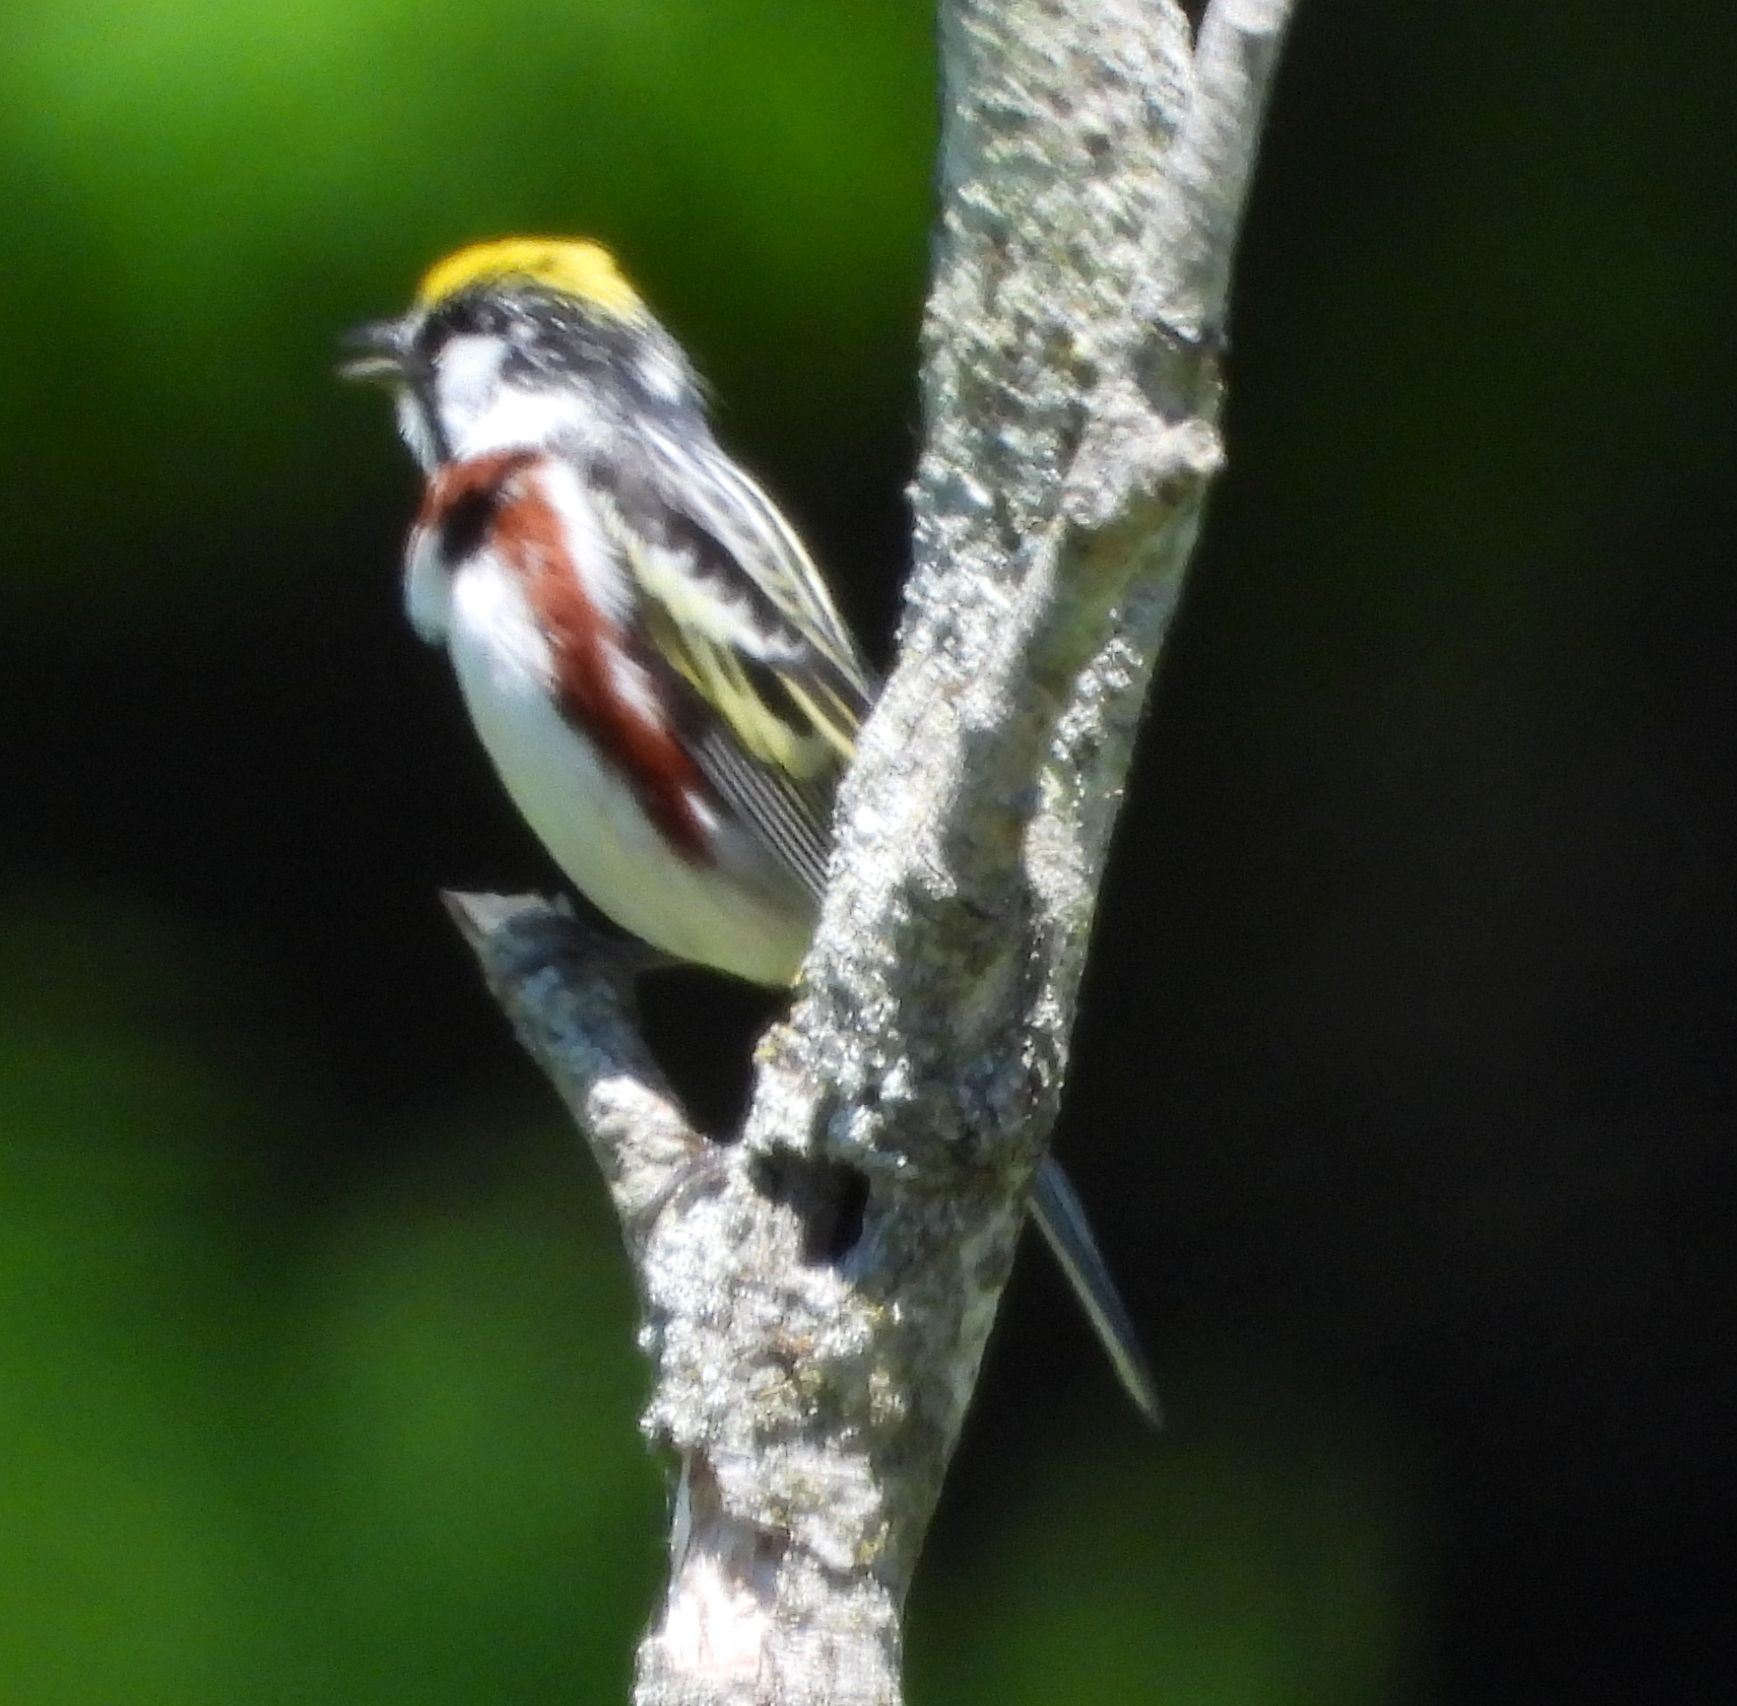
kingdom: Animalia
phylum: Chordata
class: Aves
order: Passeriformes
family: Parulidae
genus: Setophaga
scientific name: Setophaga pensylvanica
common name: Chestnut-sided warbler
